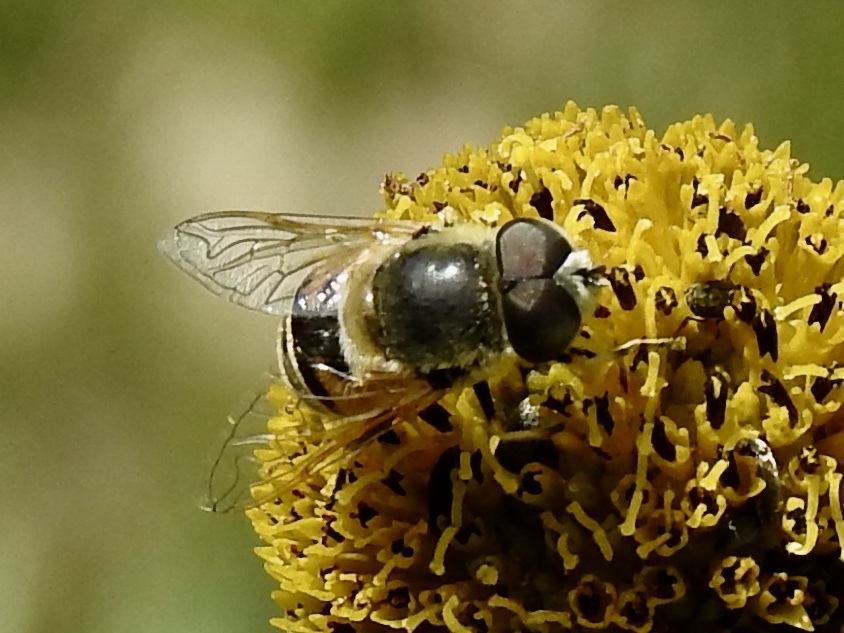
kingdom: Animalia
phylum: Arthropoda
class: Insecta
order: Diptera
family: Syrphidae
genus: Eristalis
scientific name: Eristalis stipator
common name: Yellow-shouldered drone fly
